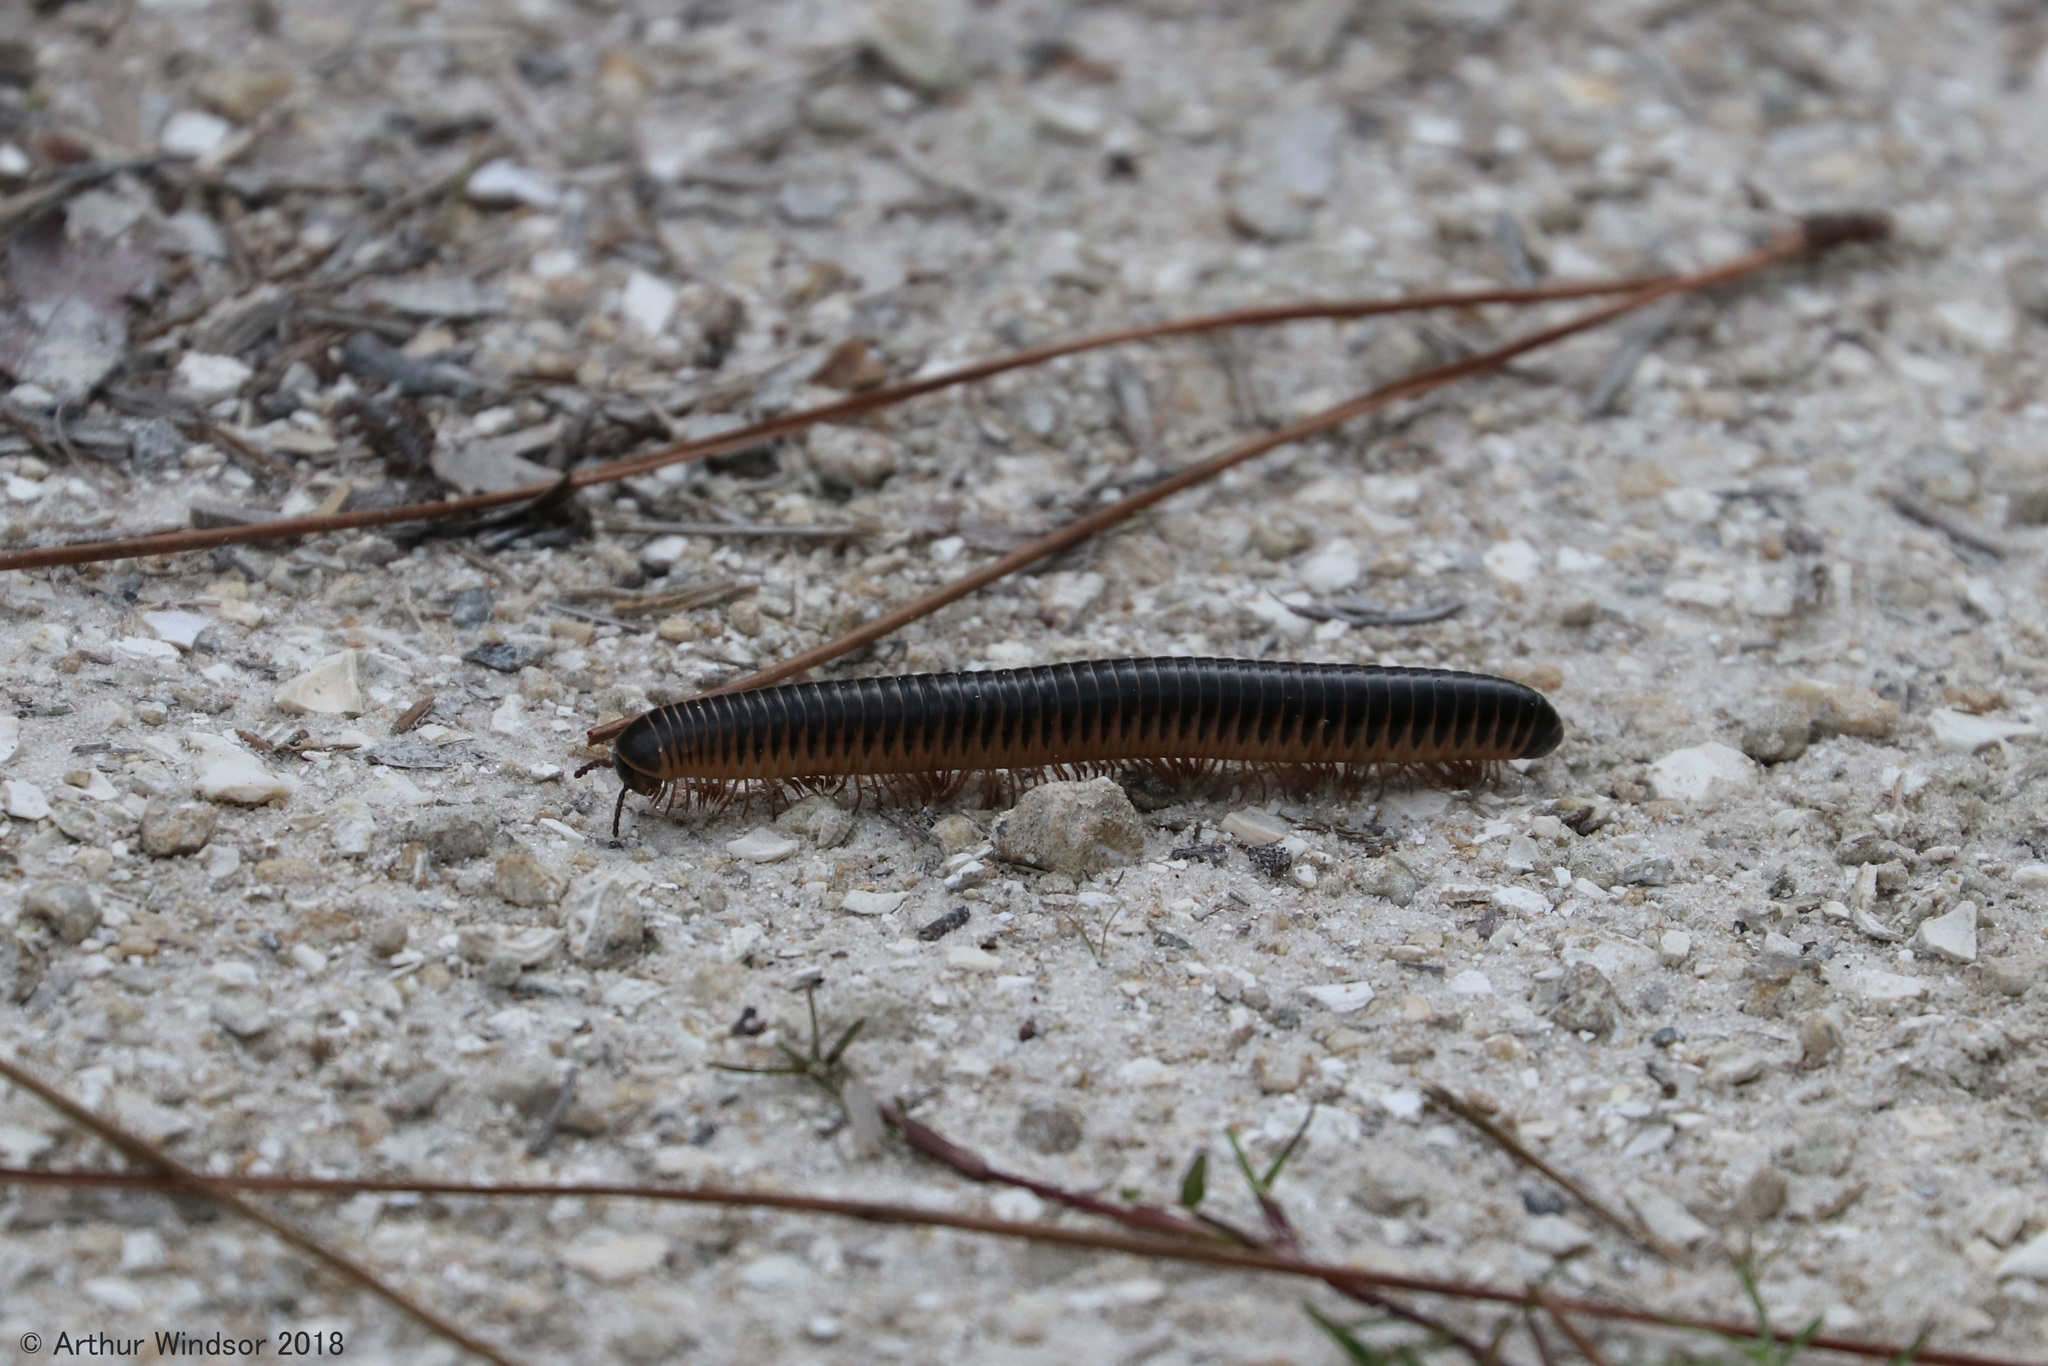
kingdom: Animalia
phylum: Arthropoda
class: Diplopoda
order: Spirobolida
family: Spirobolidae
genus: Chicobolus
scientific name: Chicobolus spinigerus
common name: Florida ivory millipede
